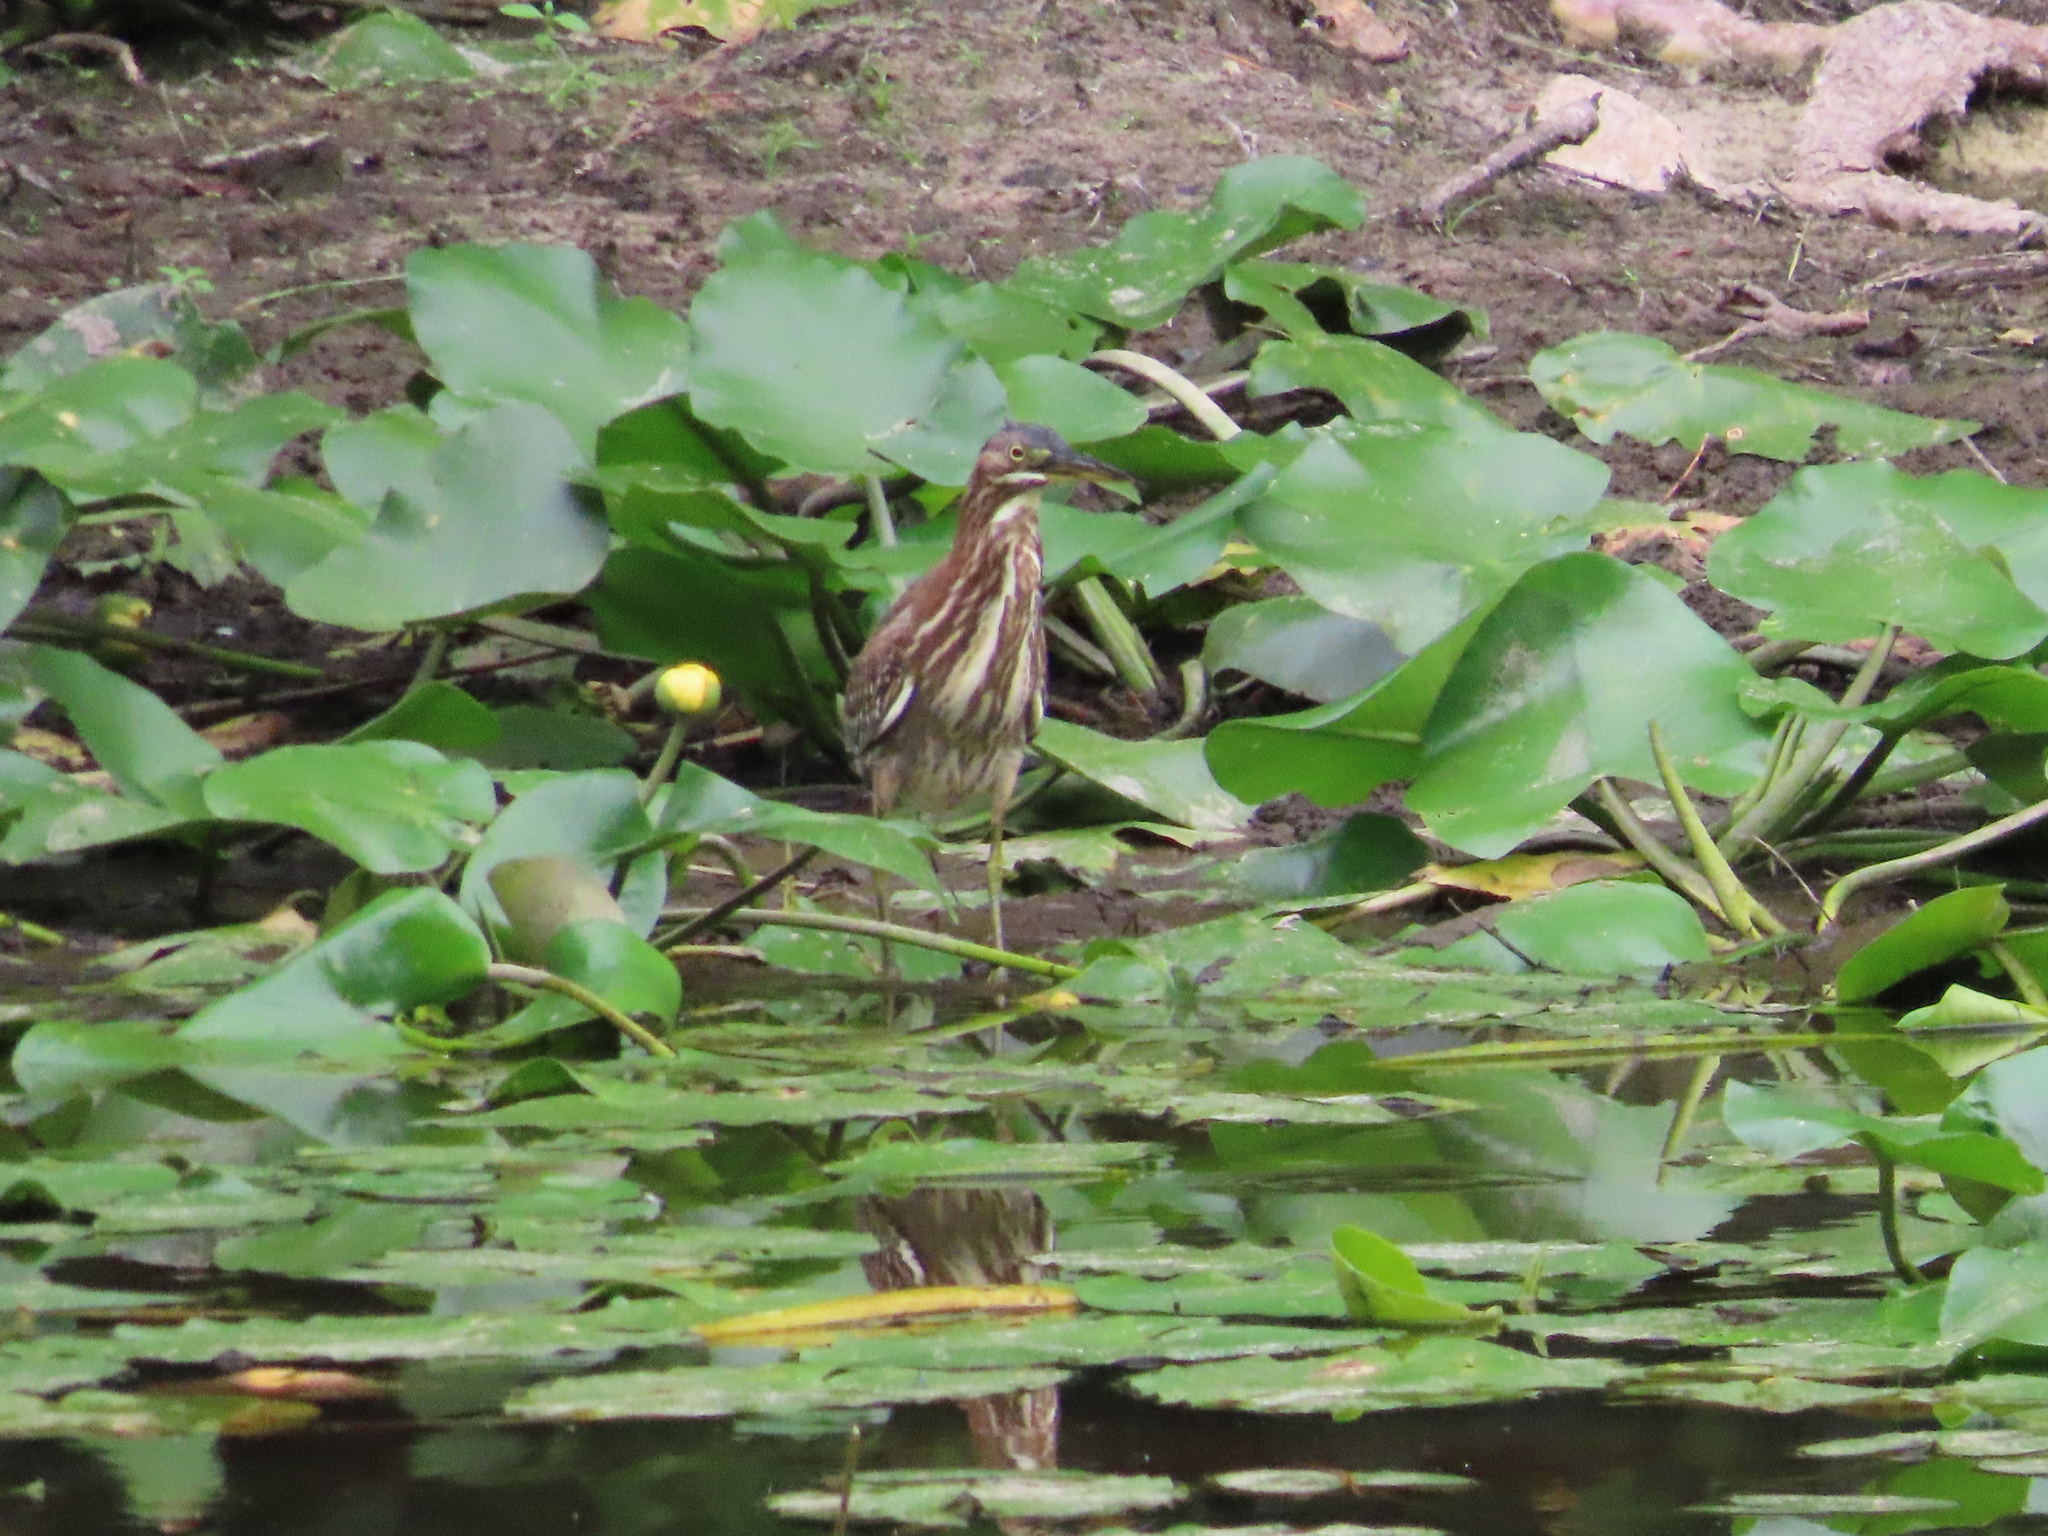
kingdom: Animalia
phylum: Chordata
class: Aves
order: Pelecaniformes
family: Ardeidae
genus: Butorides
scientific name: Butorides virescens
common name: Green heron
